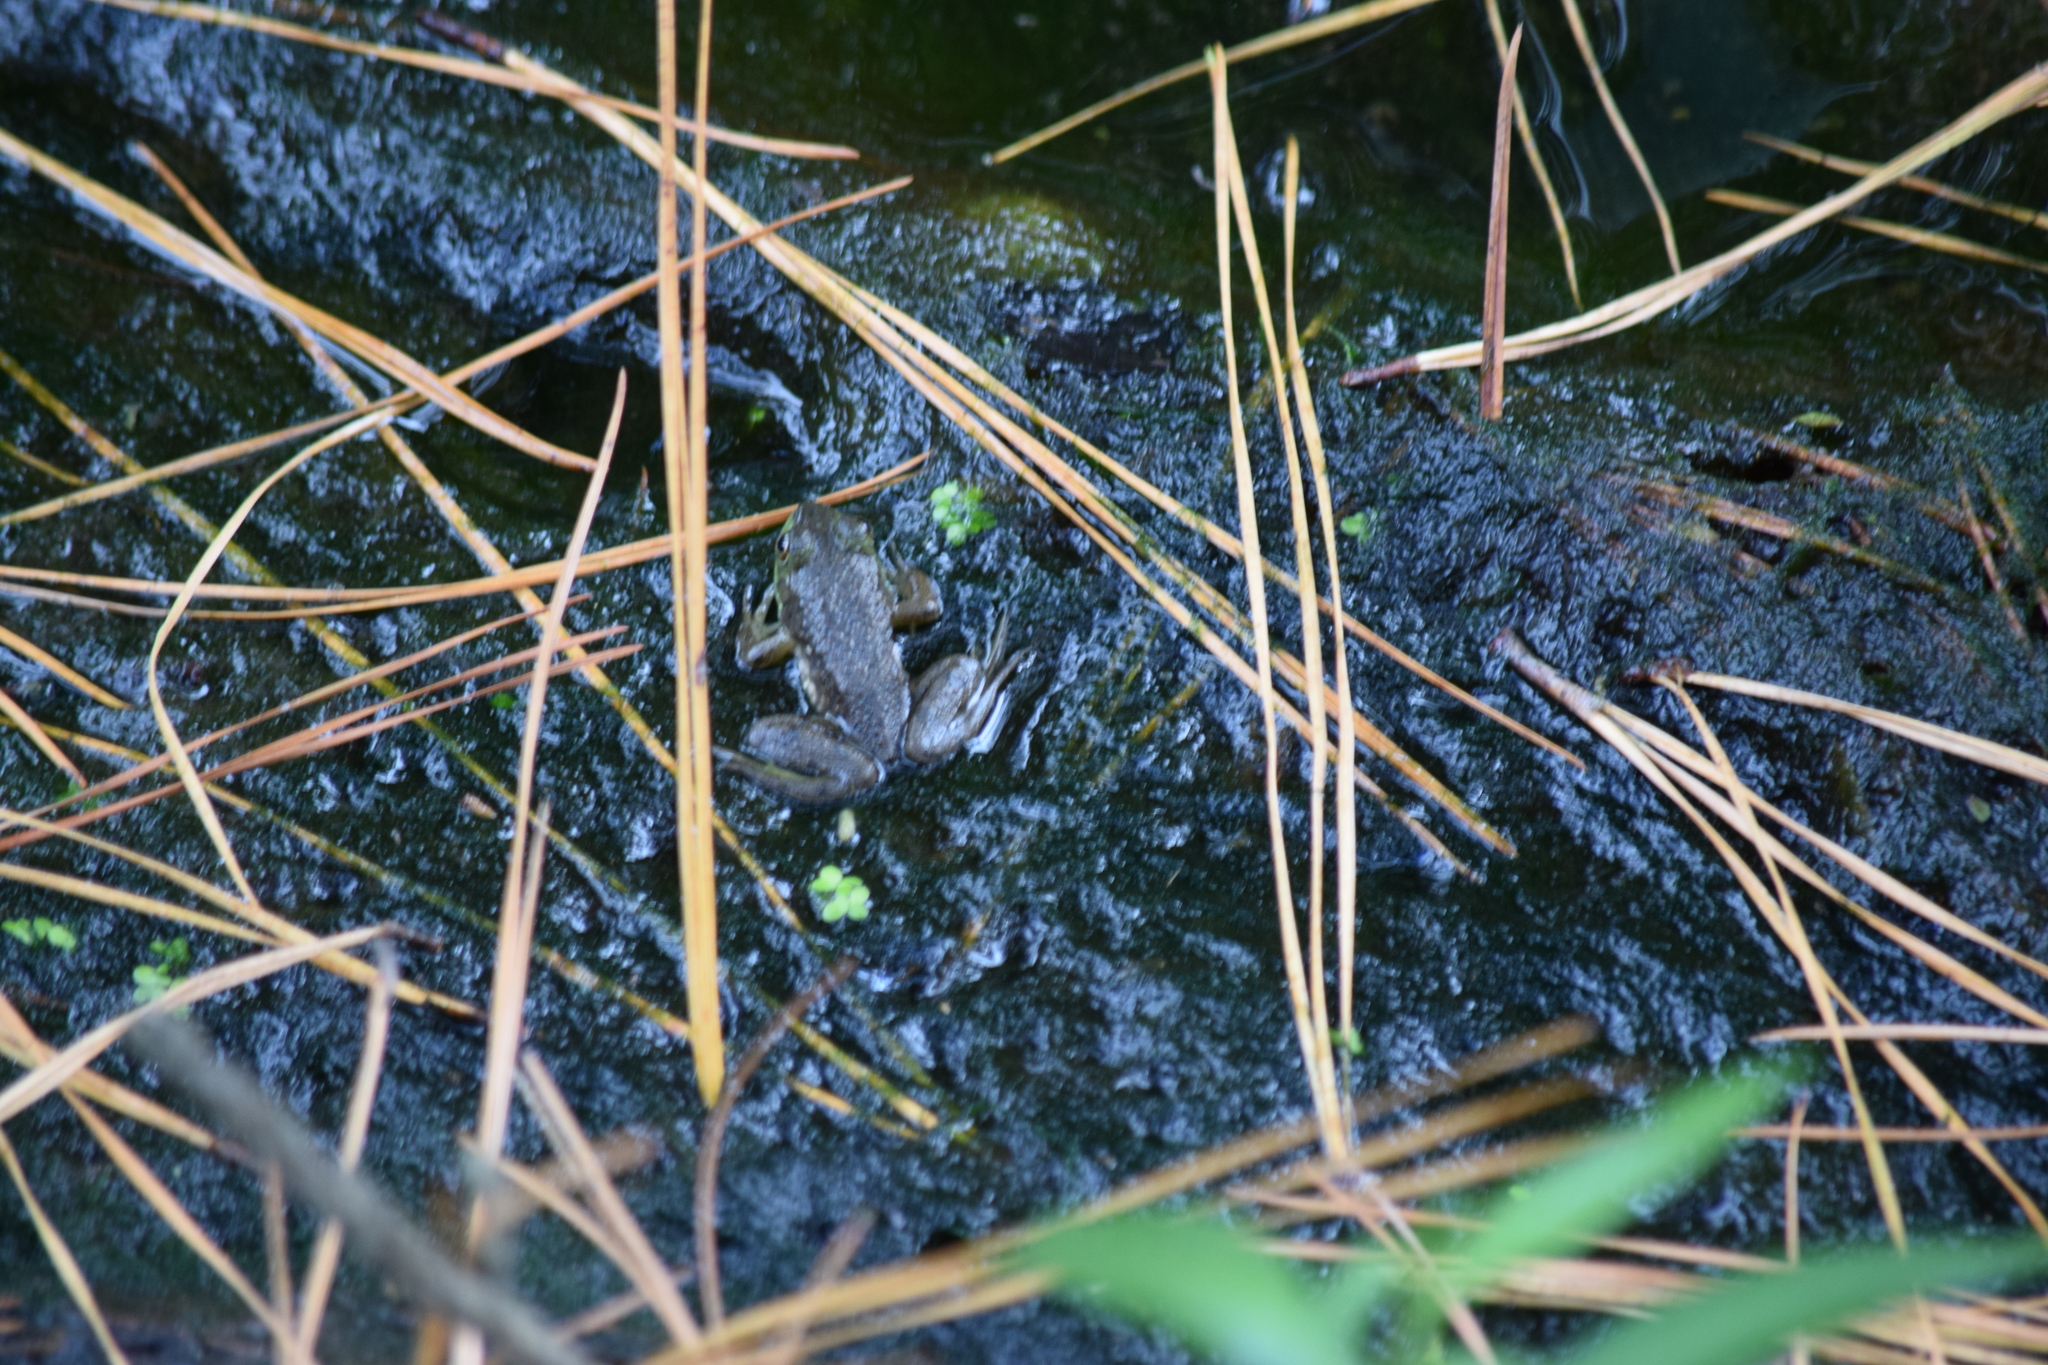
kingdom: Animalia
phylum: Chordata
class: Amphibia
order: Anura
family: Ranidae
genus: Lithobates
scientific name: Lithobates catesbeianus
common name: American bullfrog
